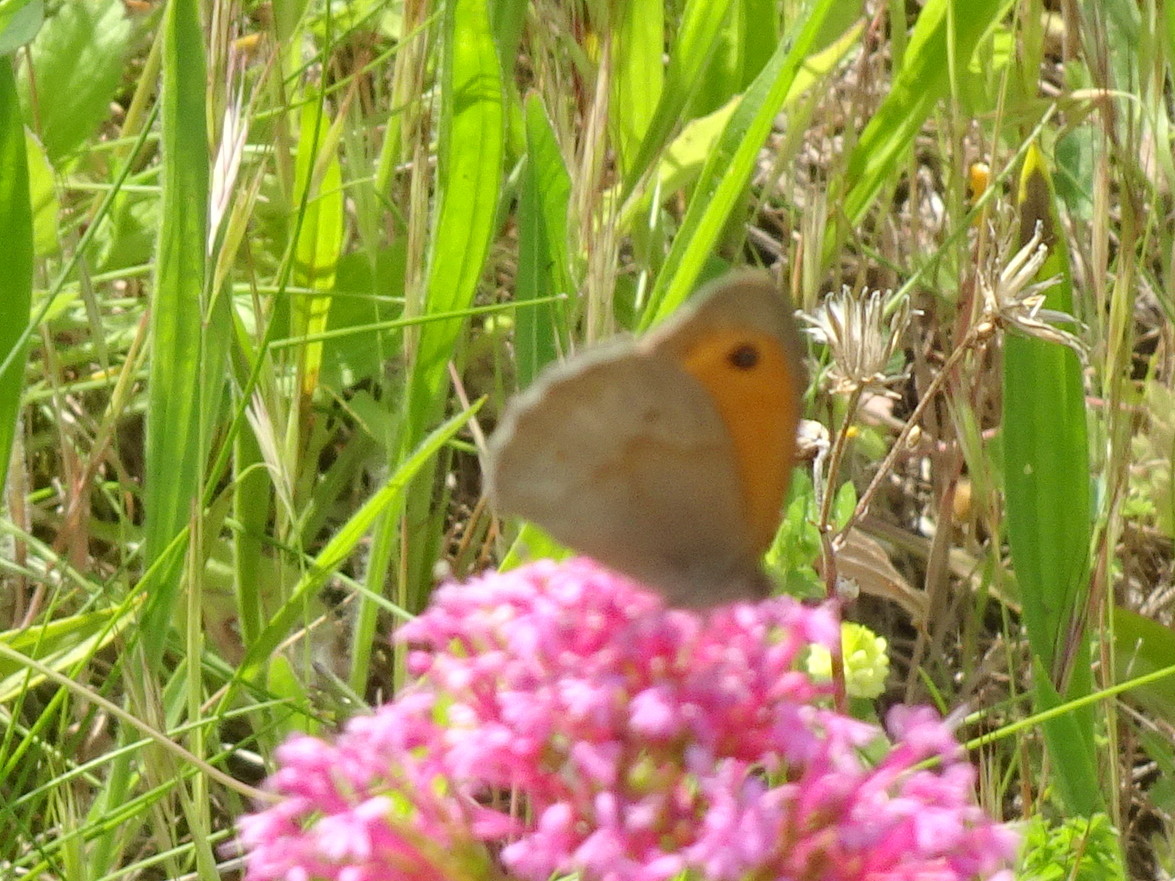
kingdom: Animalia
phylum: Arthropoda
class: Insecta
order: Lepidoptera
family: Nymphalidae
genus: Maniola
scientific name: Maniola jurtina
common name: Meadow brown
